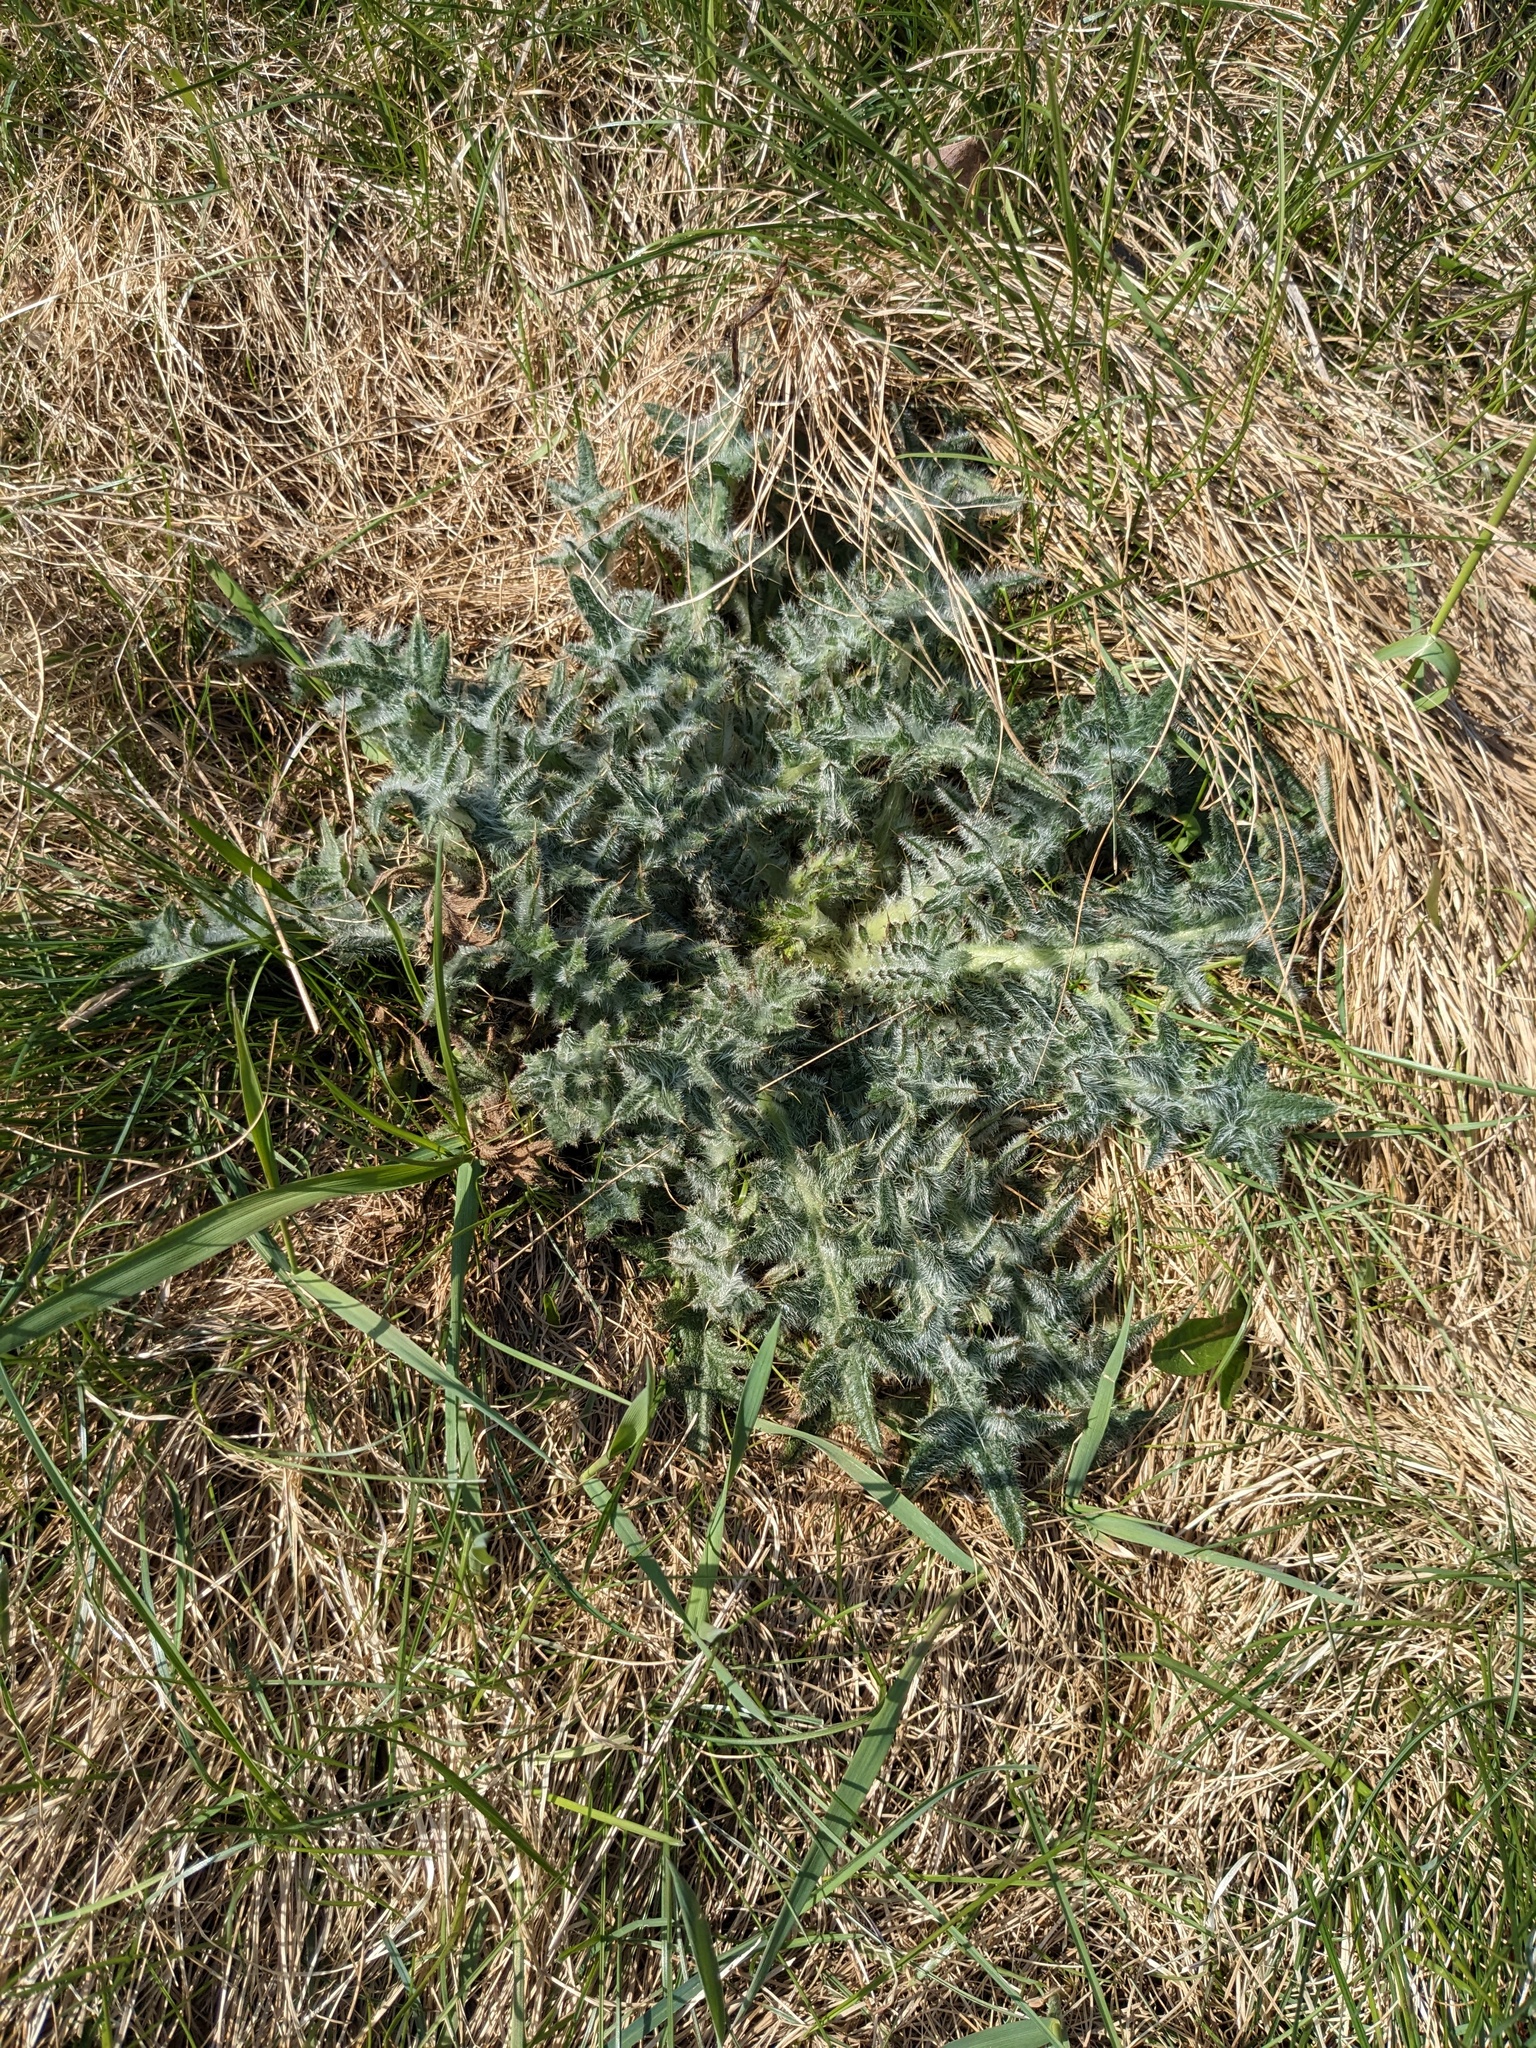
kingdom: Plantae
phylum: Tracheophyta
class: Magnoliopsida
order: Asterales
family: Asteraceae
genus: Cirsium
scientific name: Cirsium vulgare
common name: Bull thistle
